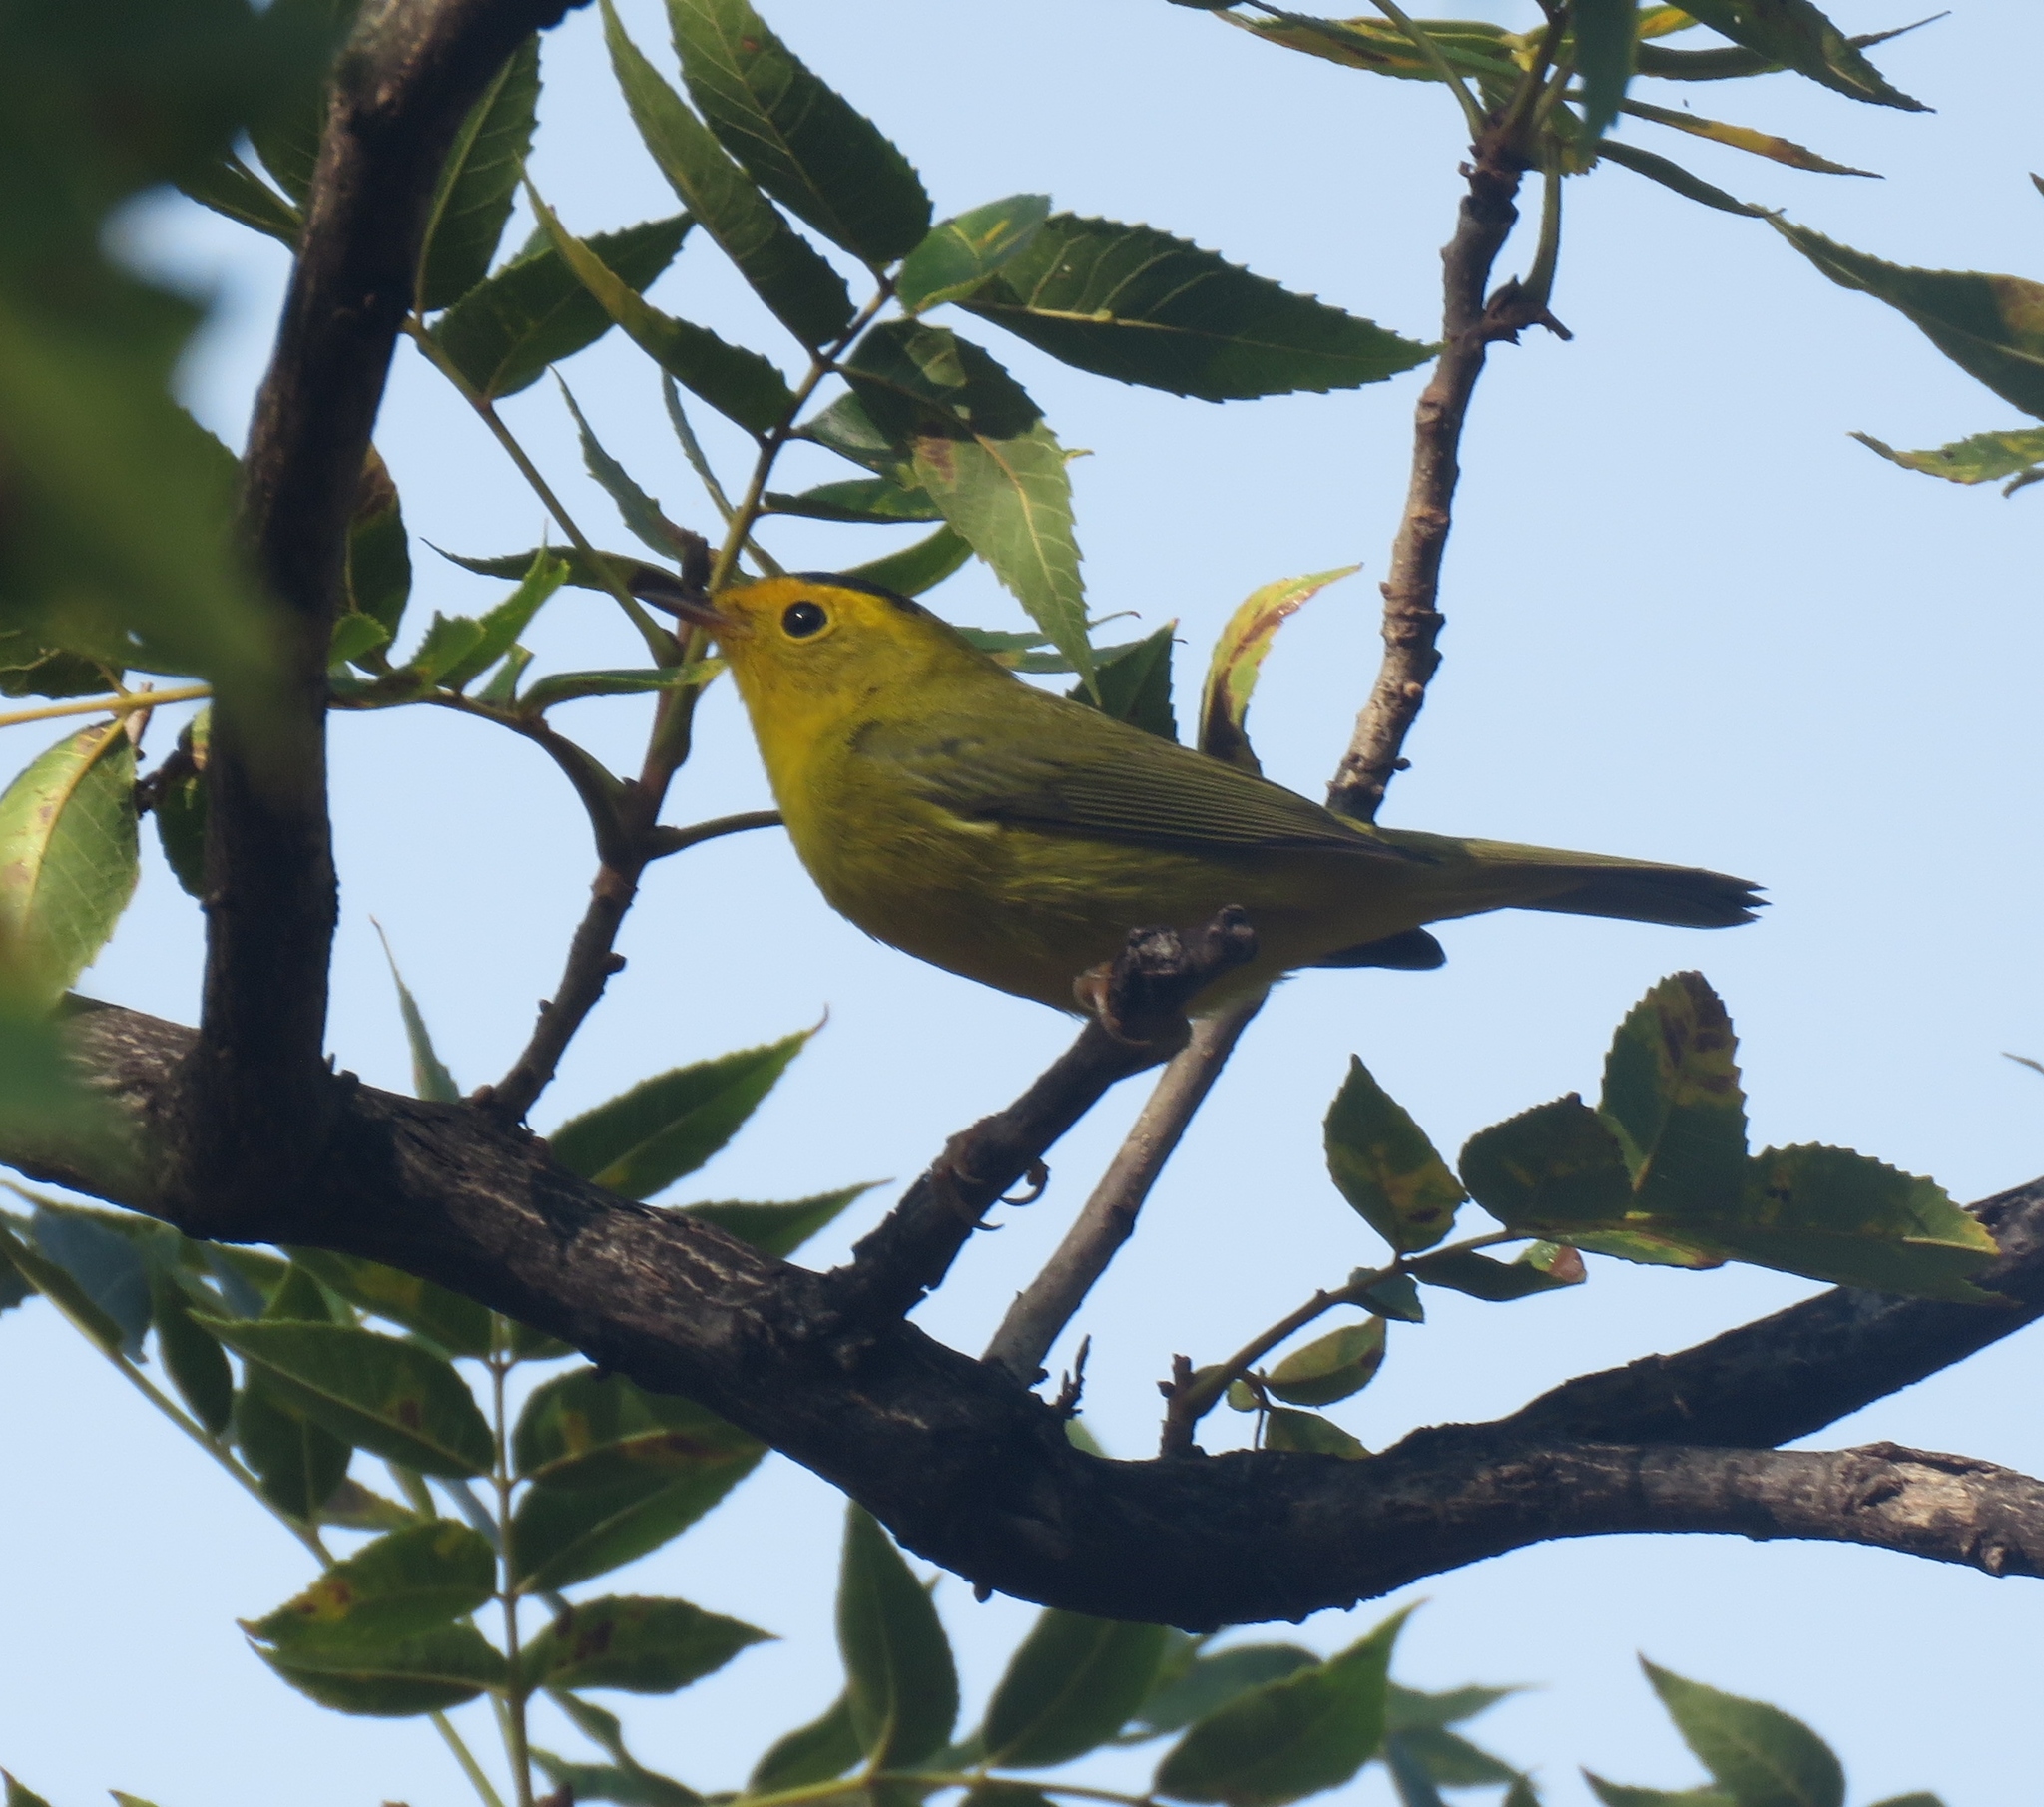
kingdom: Animalia
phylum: Chordata
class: Aves
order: Passeriformes
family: Parulidae
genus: Cardellina
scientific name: Cardellina pusilla
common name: Wilson's warbler
